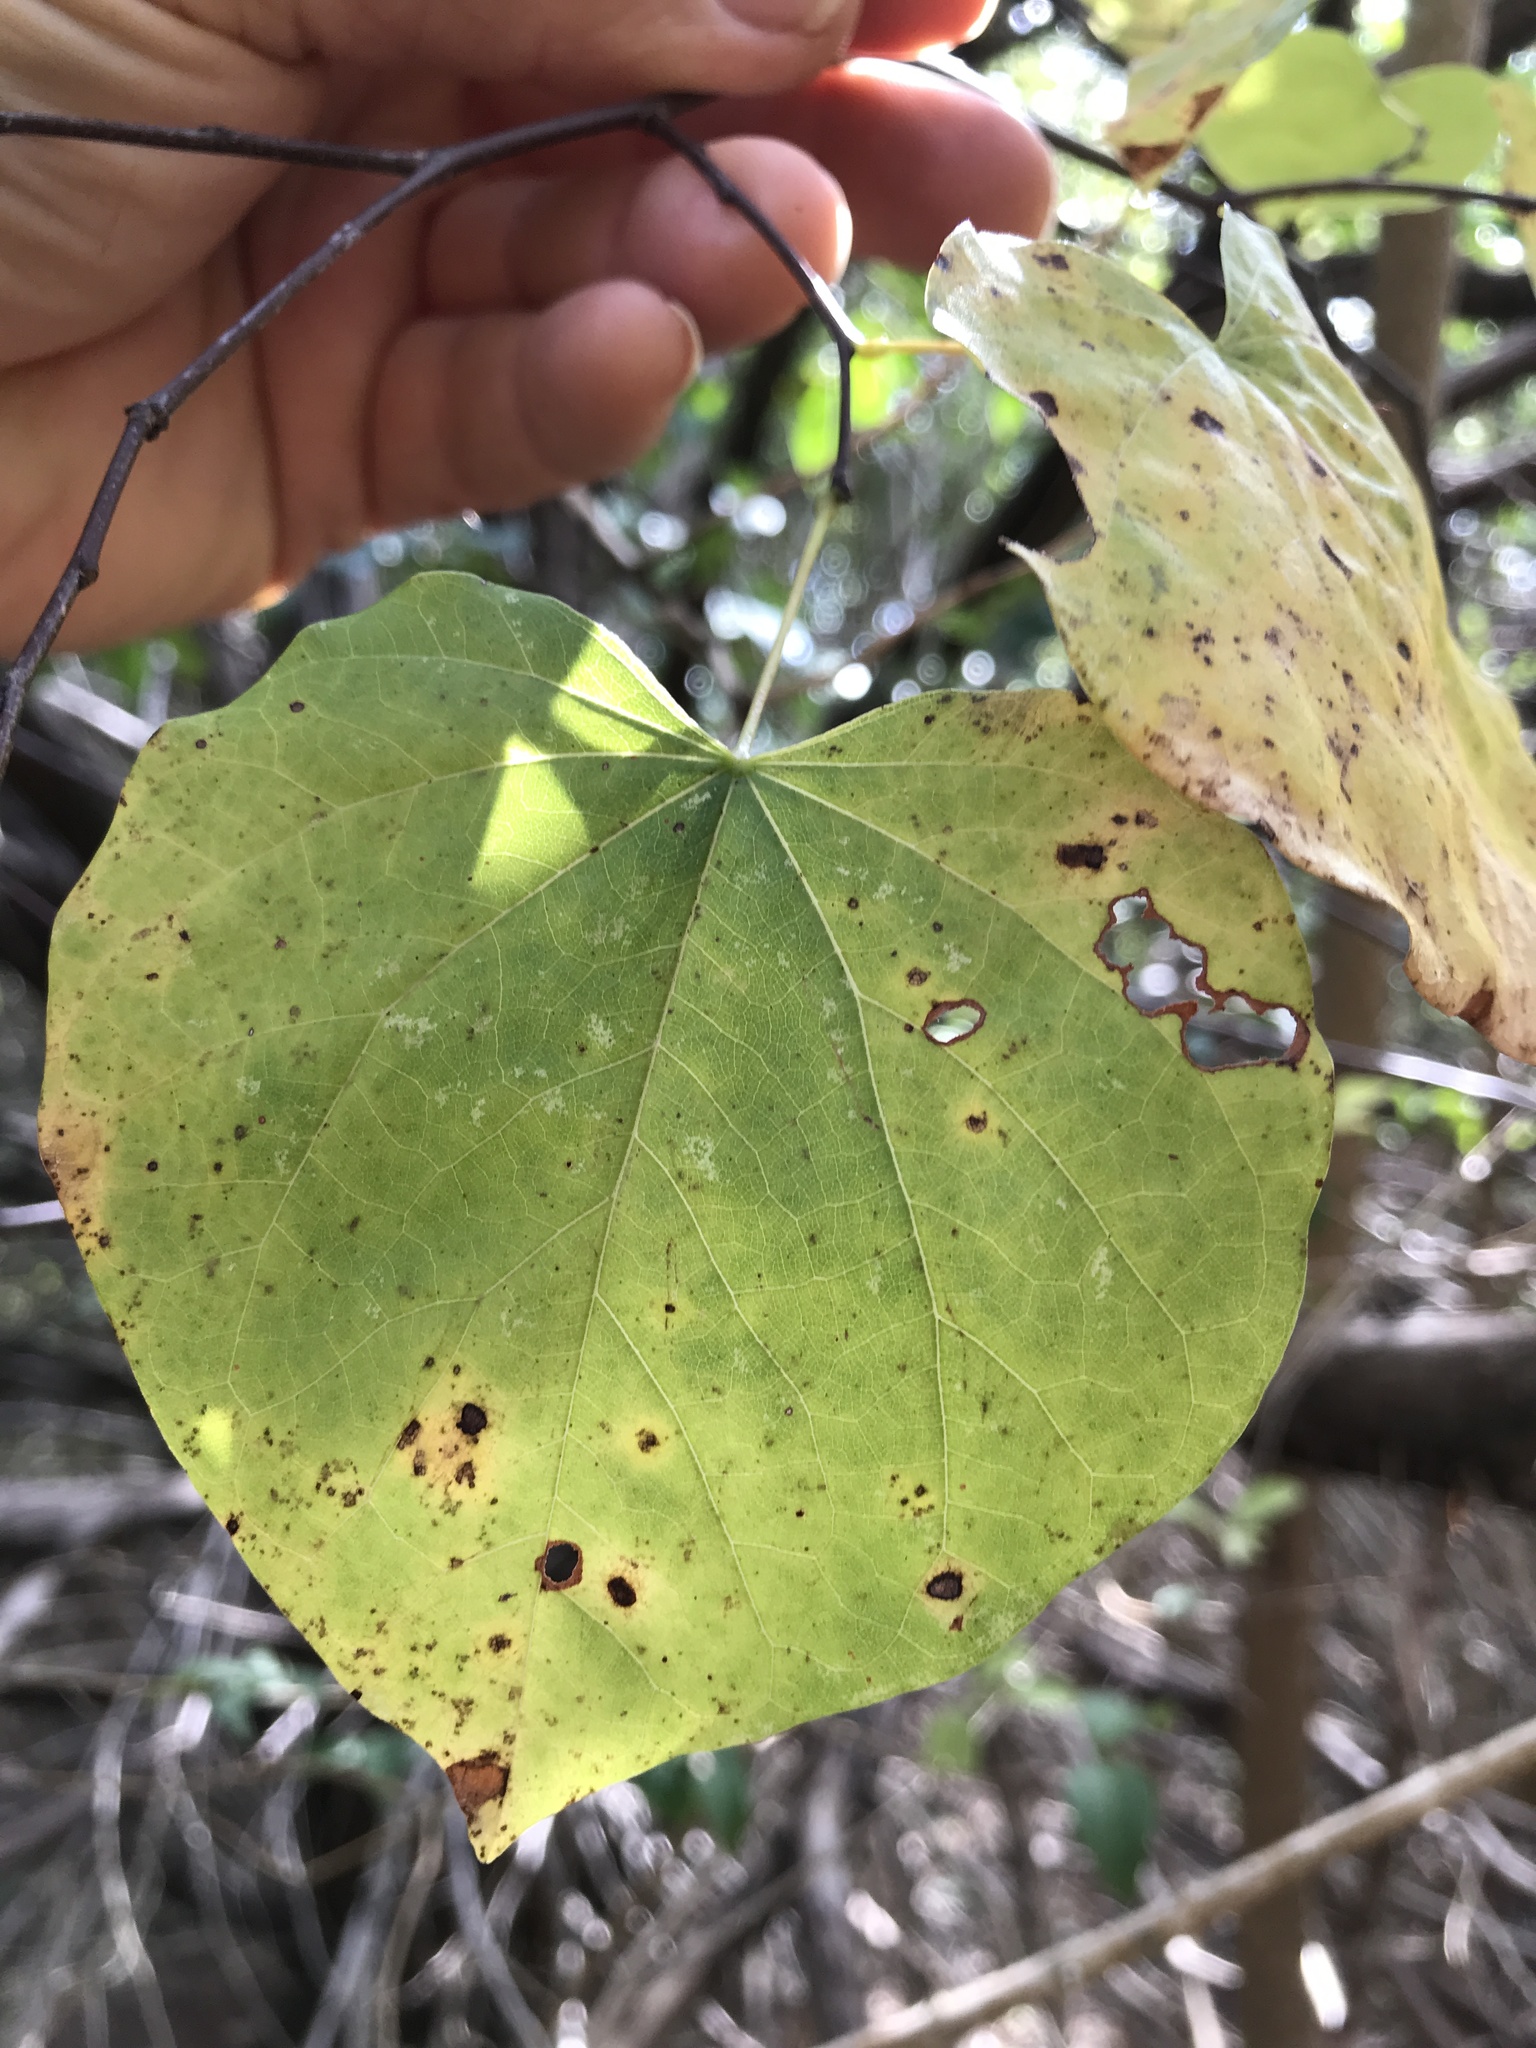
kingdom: Plantae
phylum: Tracheophyta
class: Magnoliopsida
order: Fabales
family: Fabaceae
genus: Cercis
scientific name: Cercis canadensis
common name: Eastern redbud
